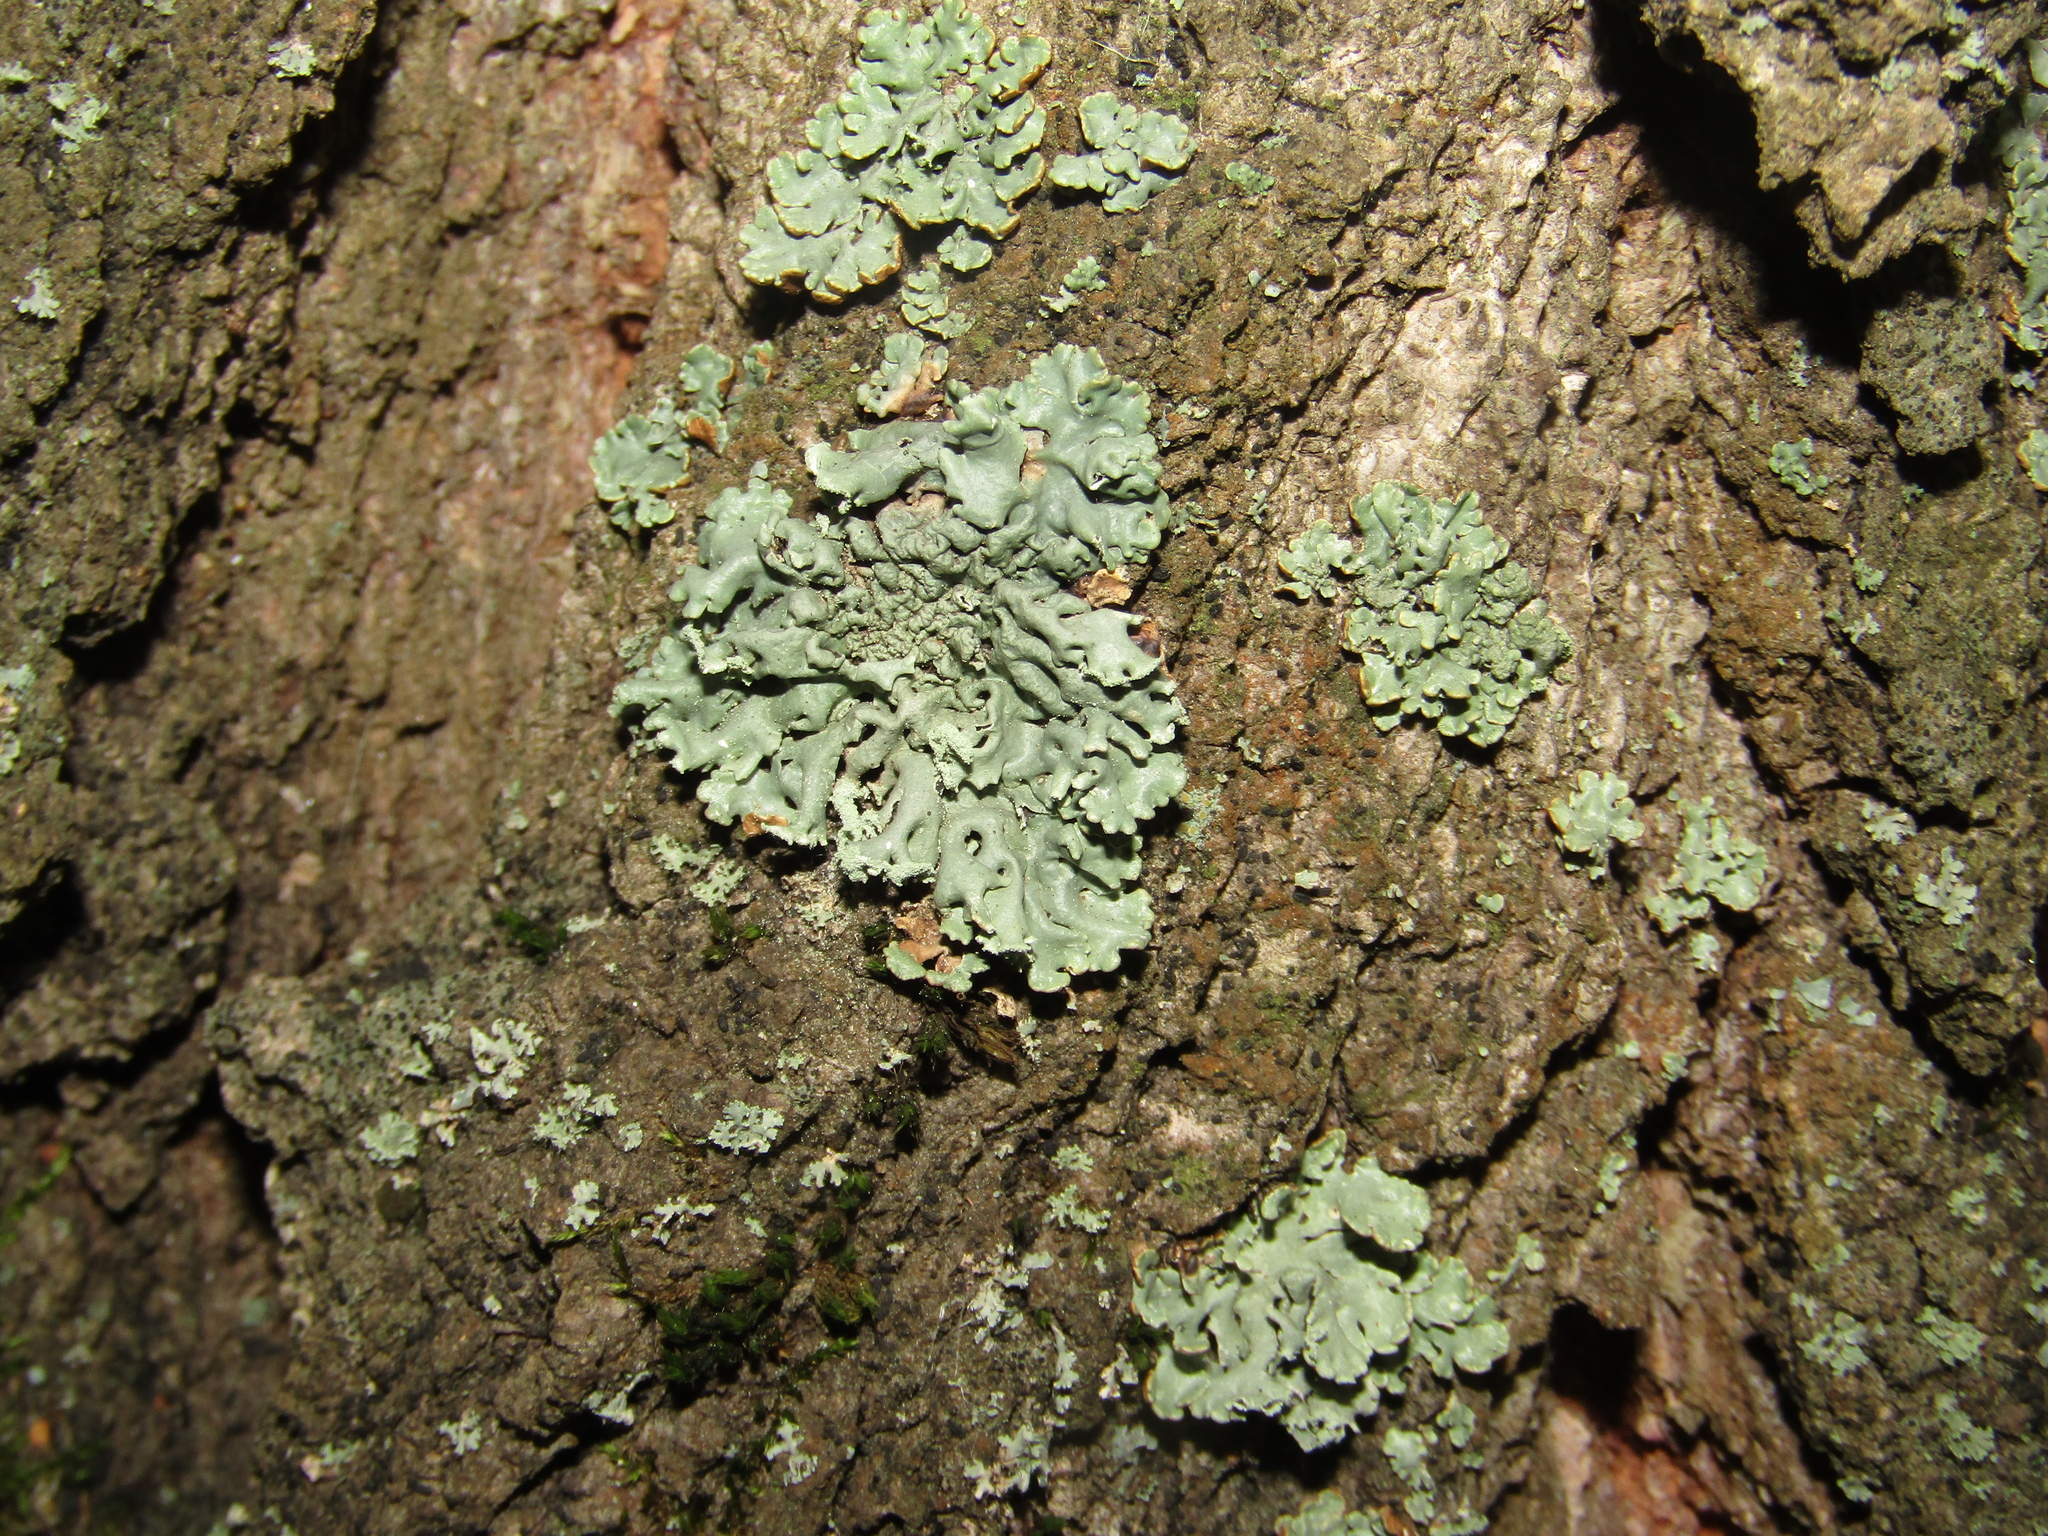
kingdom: Fungi
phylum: Ascomycota
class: Lecanoromycetes
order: Lecanorales
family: Parmeliaceae
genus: Hypogymnia
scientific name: Hypogymnia physodes
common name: Dark crottle
